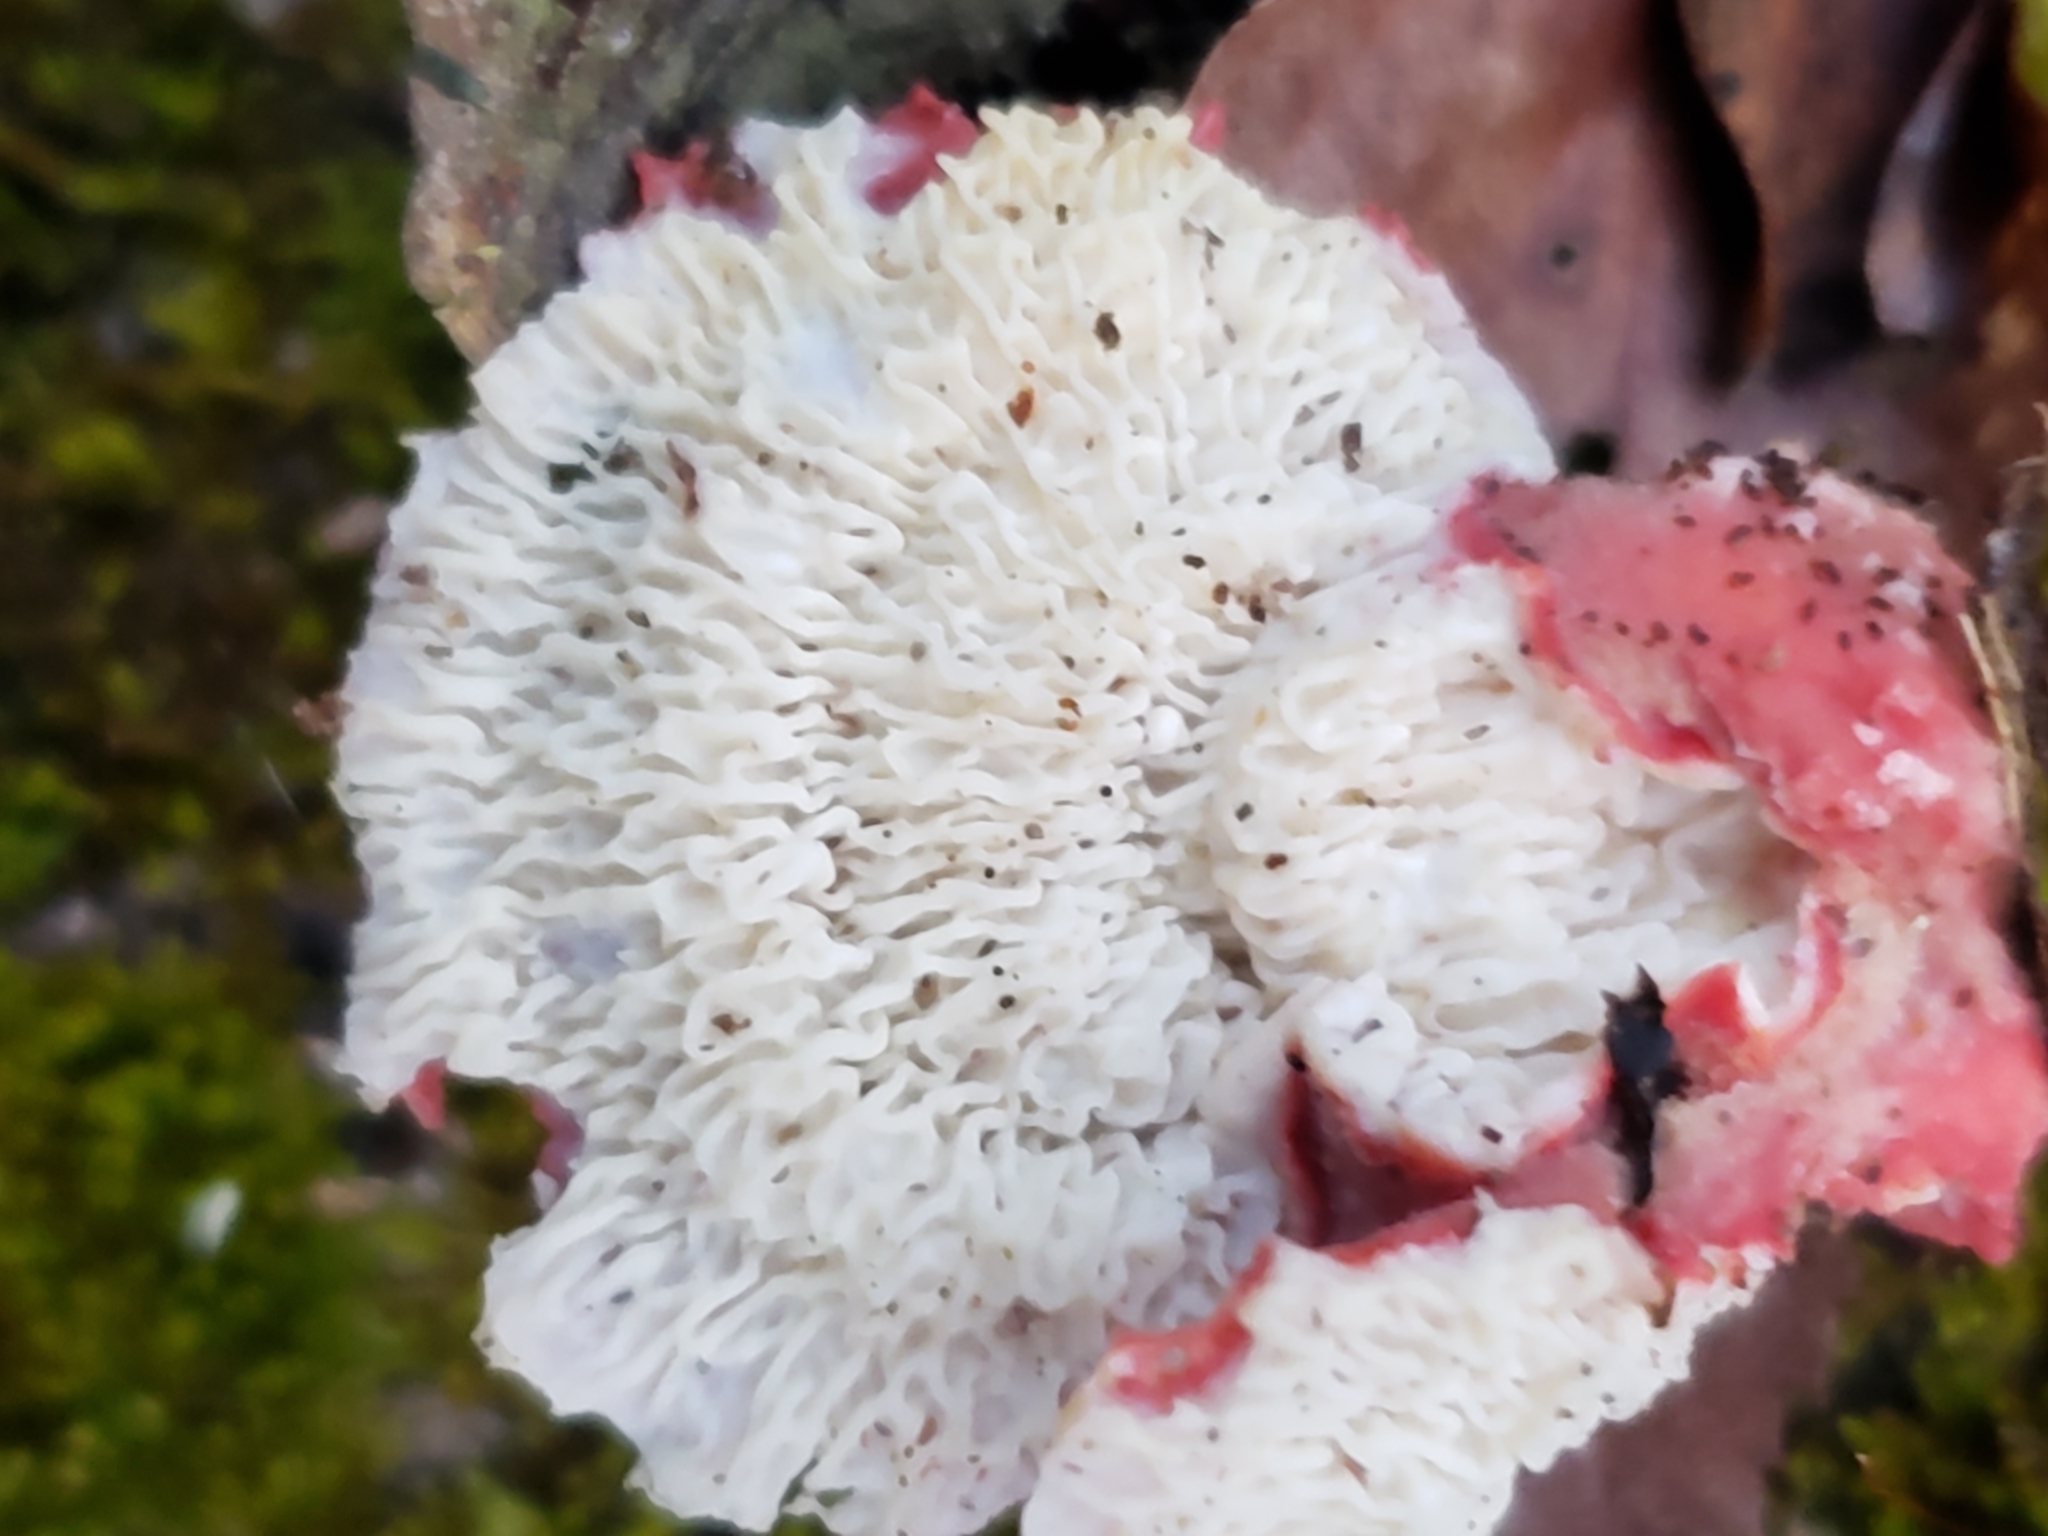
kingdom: Fungi
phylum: Basidiomycota
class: Agaricomycetes
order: Polyporales
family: Irpicaceae
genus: Byssomerulius
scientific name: Byssomerulius incarnatus
